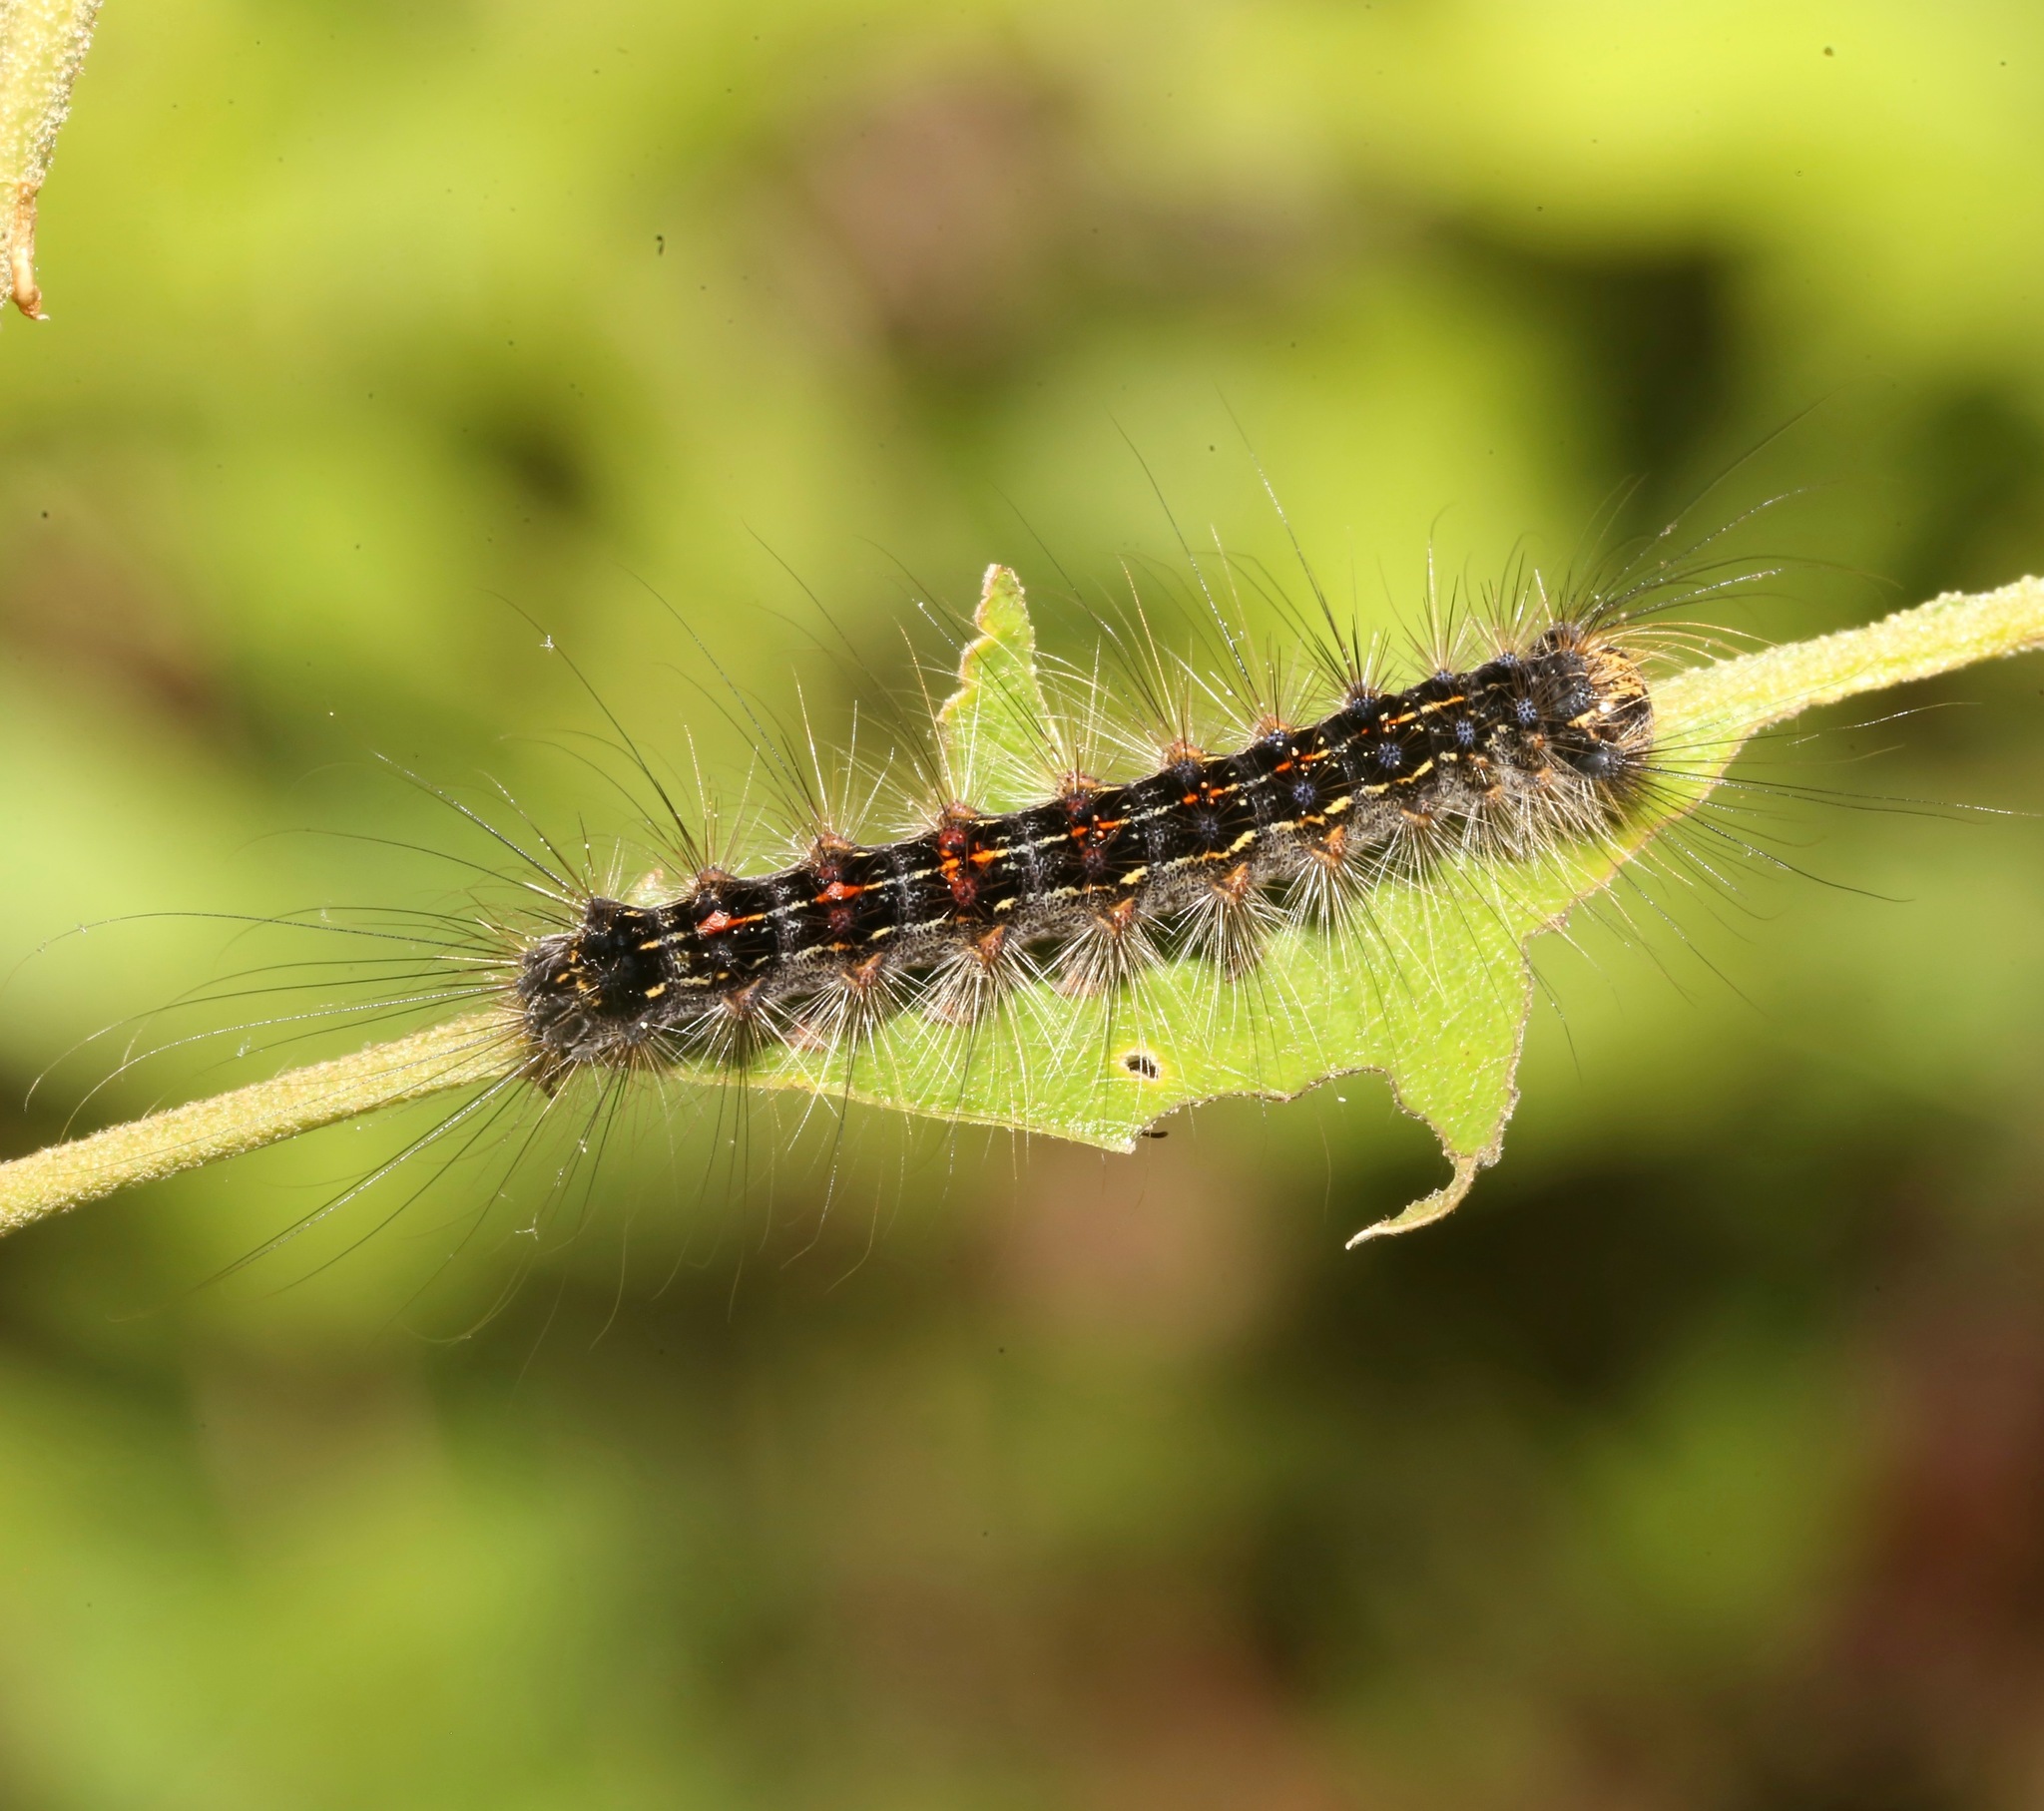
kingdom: Animalia
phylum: Arthropoda
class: Insecta
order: Lepidoptera
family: Erebidae
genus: Lymantria
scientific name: Lymantria dispar
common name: Gypsy moth
